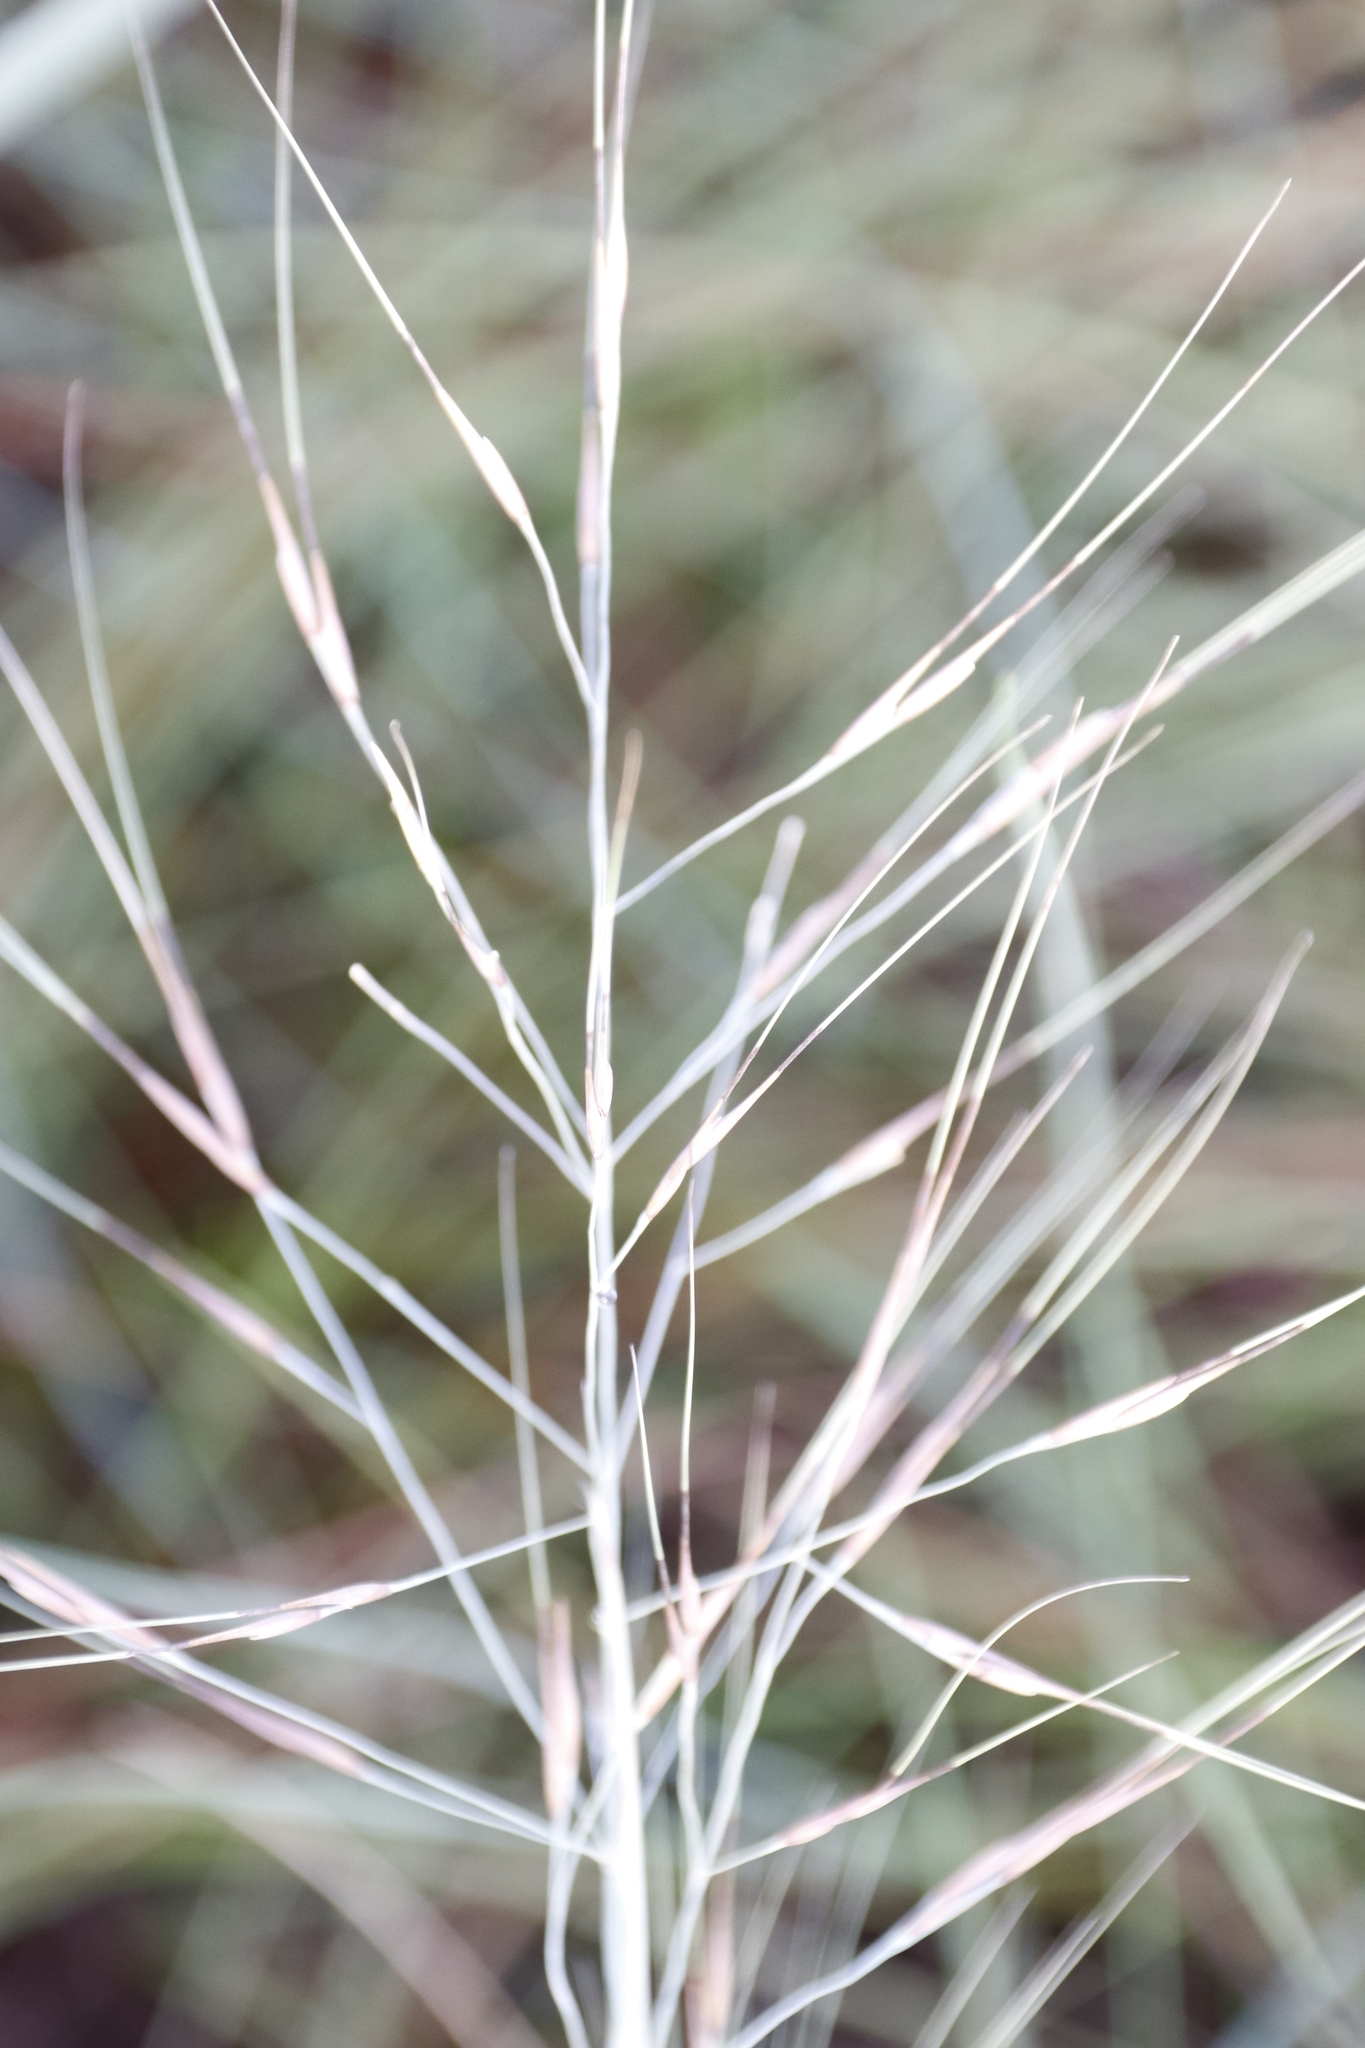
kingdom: Plantae
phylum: Tracheophyta
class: Liliopsida
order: Poales
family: Poaceae
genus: Loudetia
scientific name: Loudetia simplex
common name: Common russet grass
